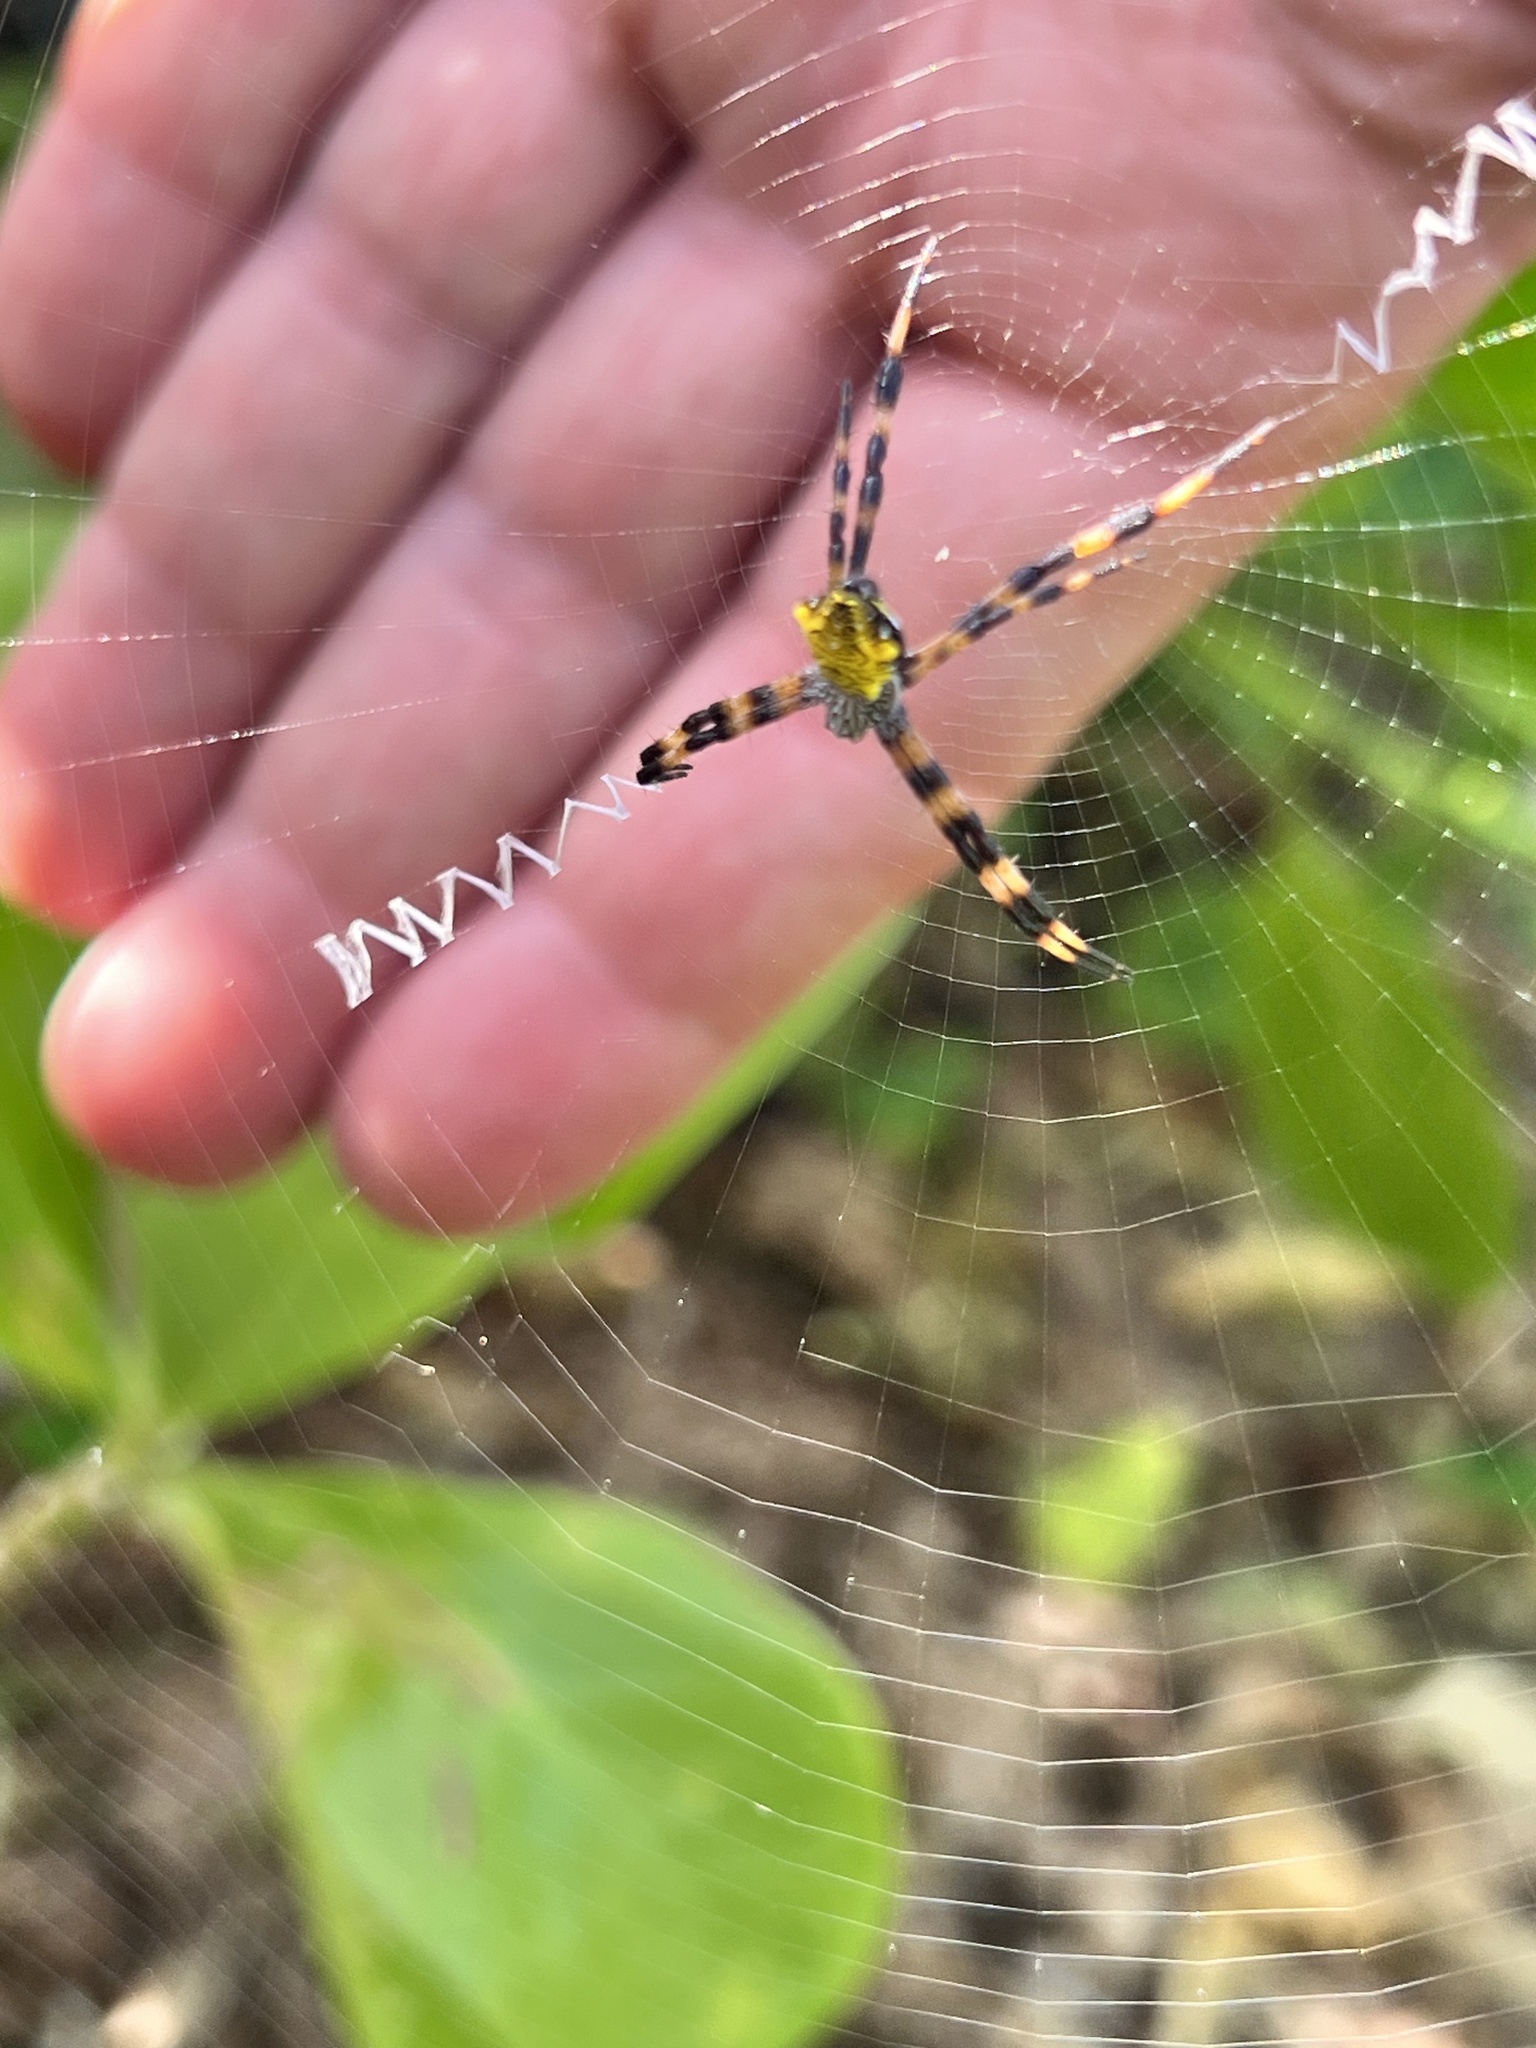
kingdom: Animalia
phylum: Arthropoda
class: Arachnida
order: Araneae
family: Araneidae
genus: Argiope
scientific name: Argiope appensa
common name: Garden spider
